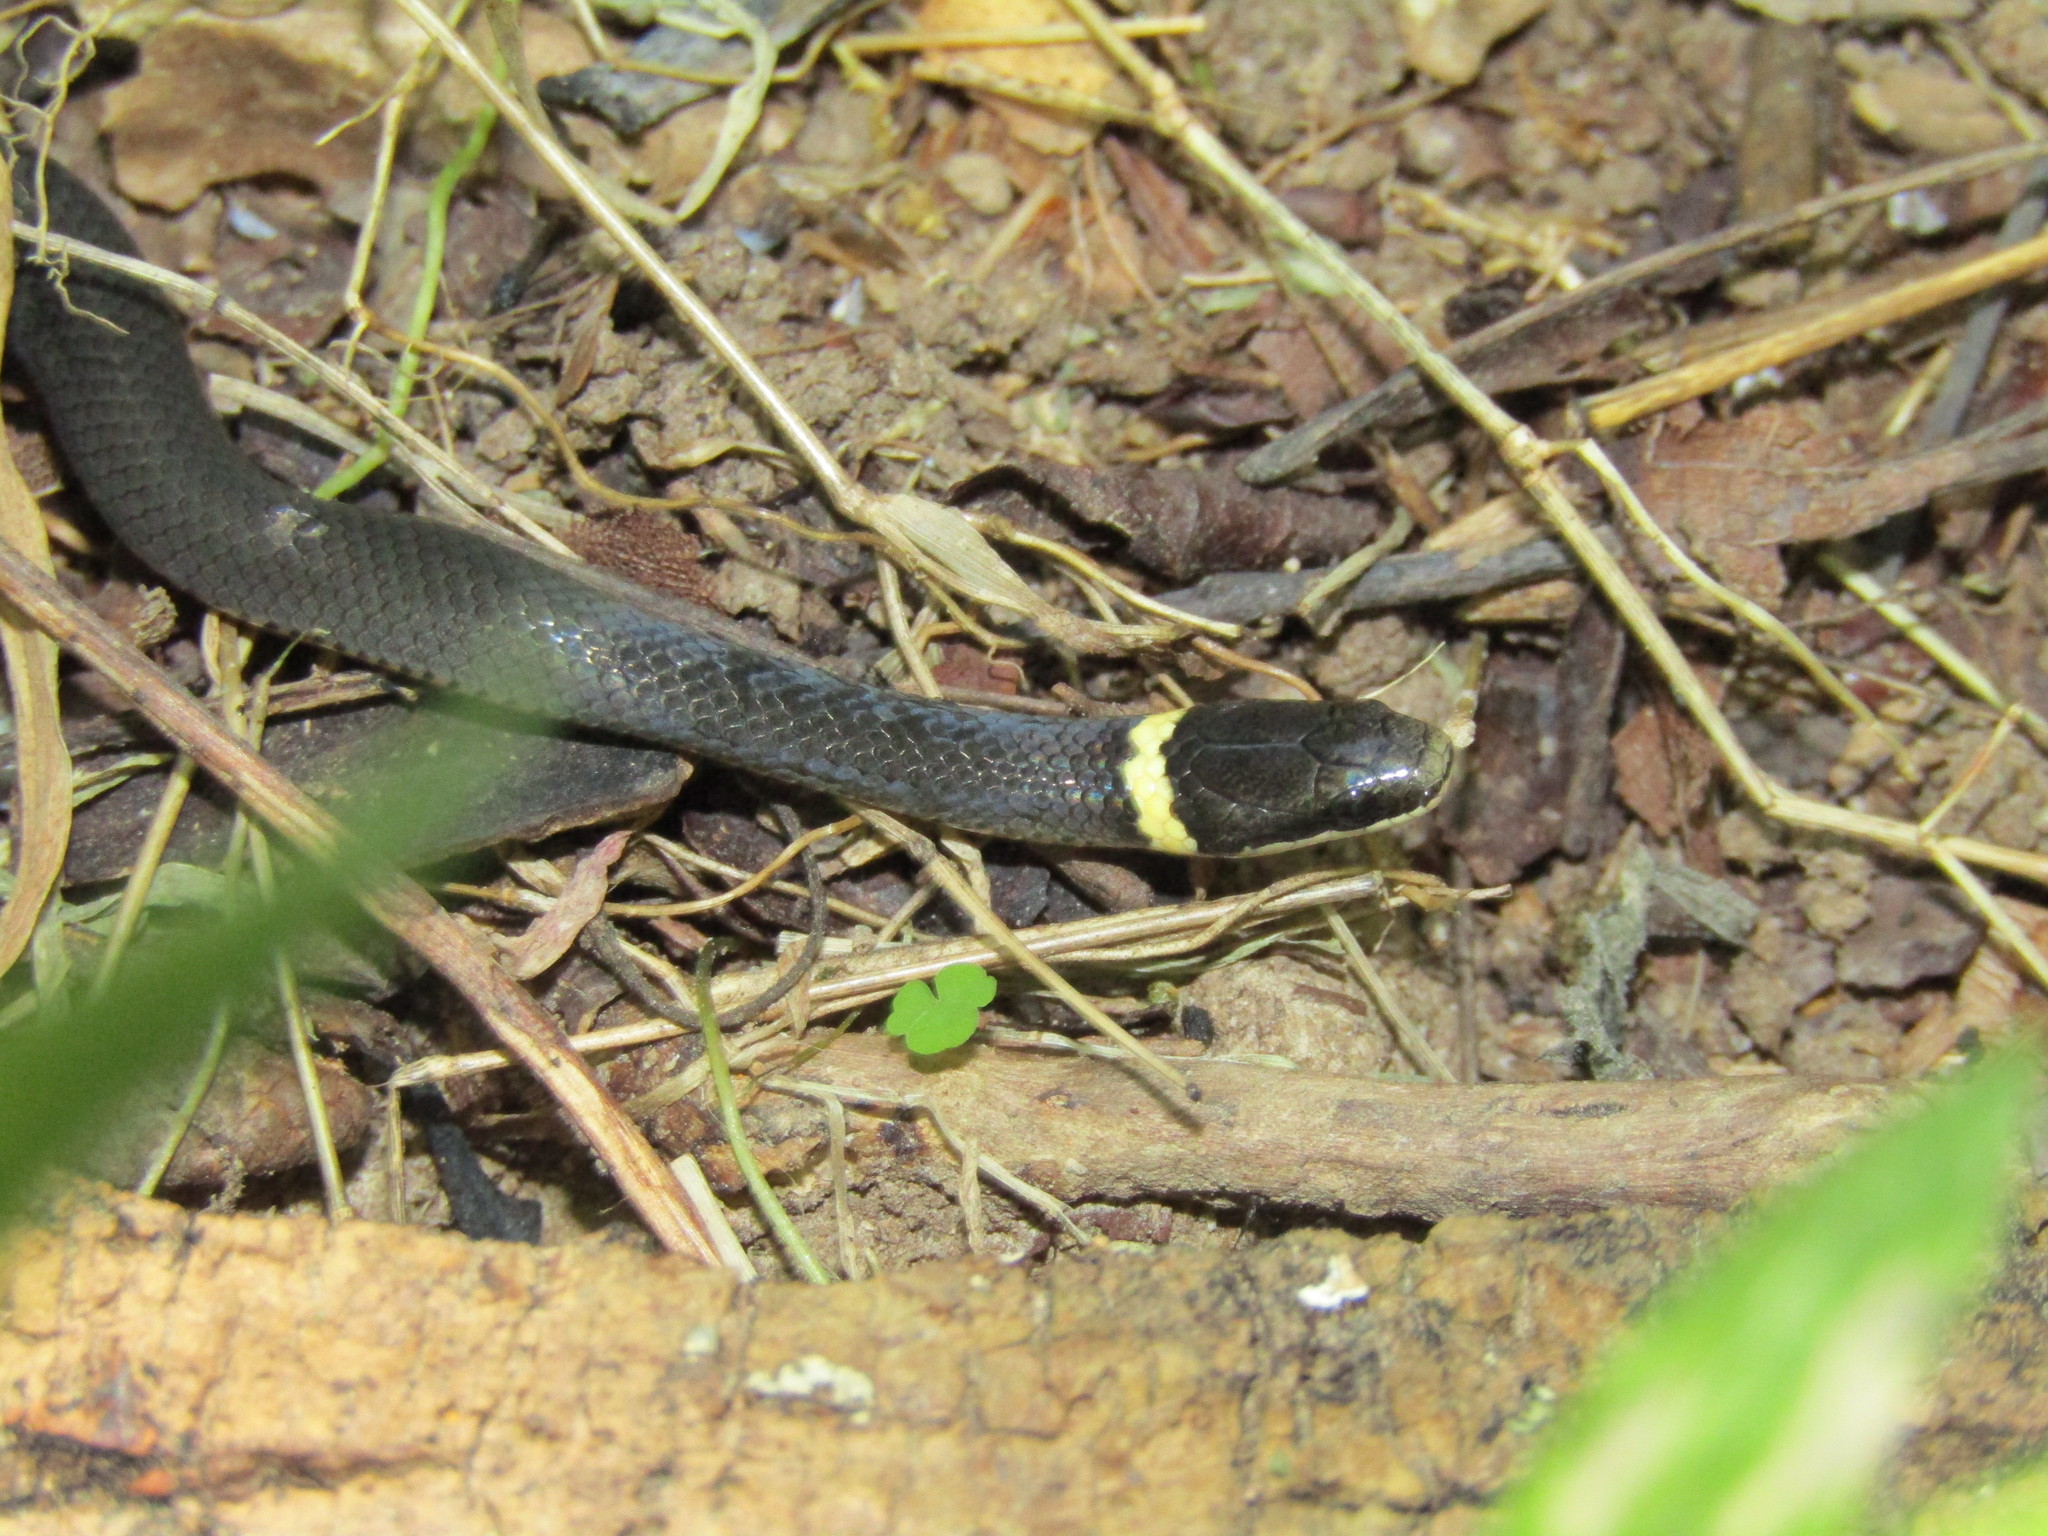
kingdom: Animalia
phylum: Chordata
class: Squamata
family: Colubridae
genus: Diadophis
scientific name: Diadophis punctatus
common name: Ringneck snake
